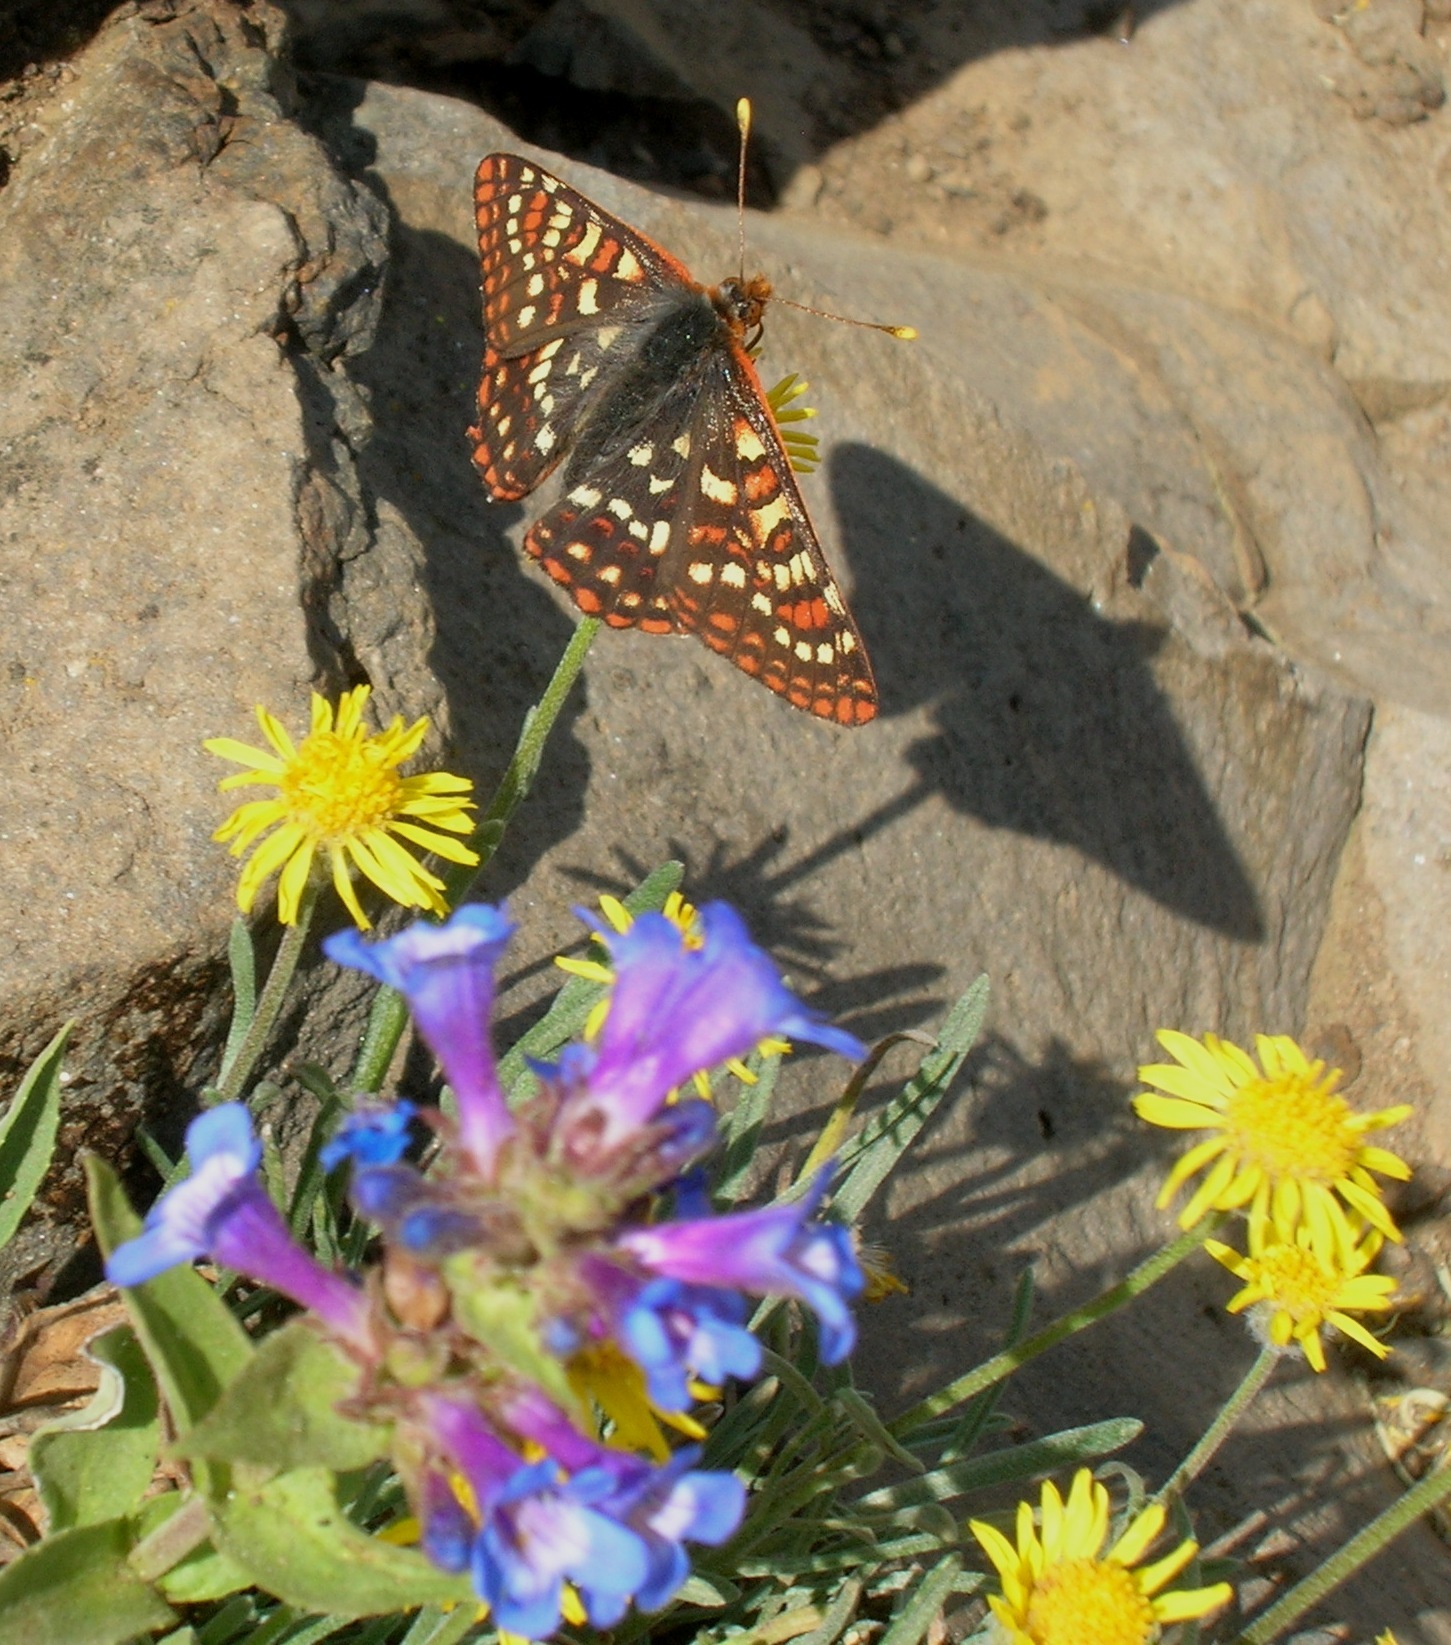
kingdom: Plantae
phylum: Tracheophyta
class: Magnoliopsida
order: Asterales
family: Asteraceae
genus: Eriophyllum
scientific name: Eriophyllum lanatum
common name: Common woolly-sunflower
